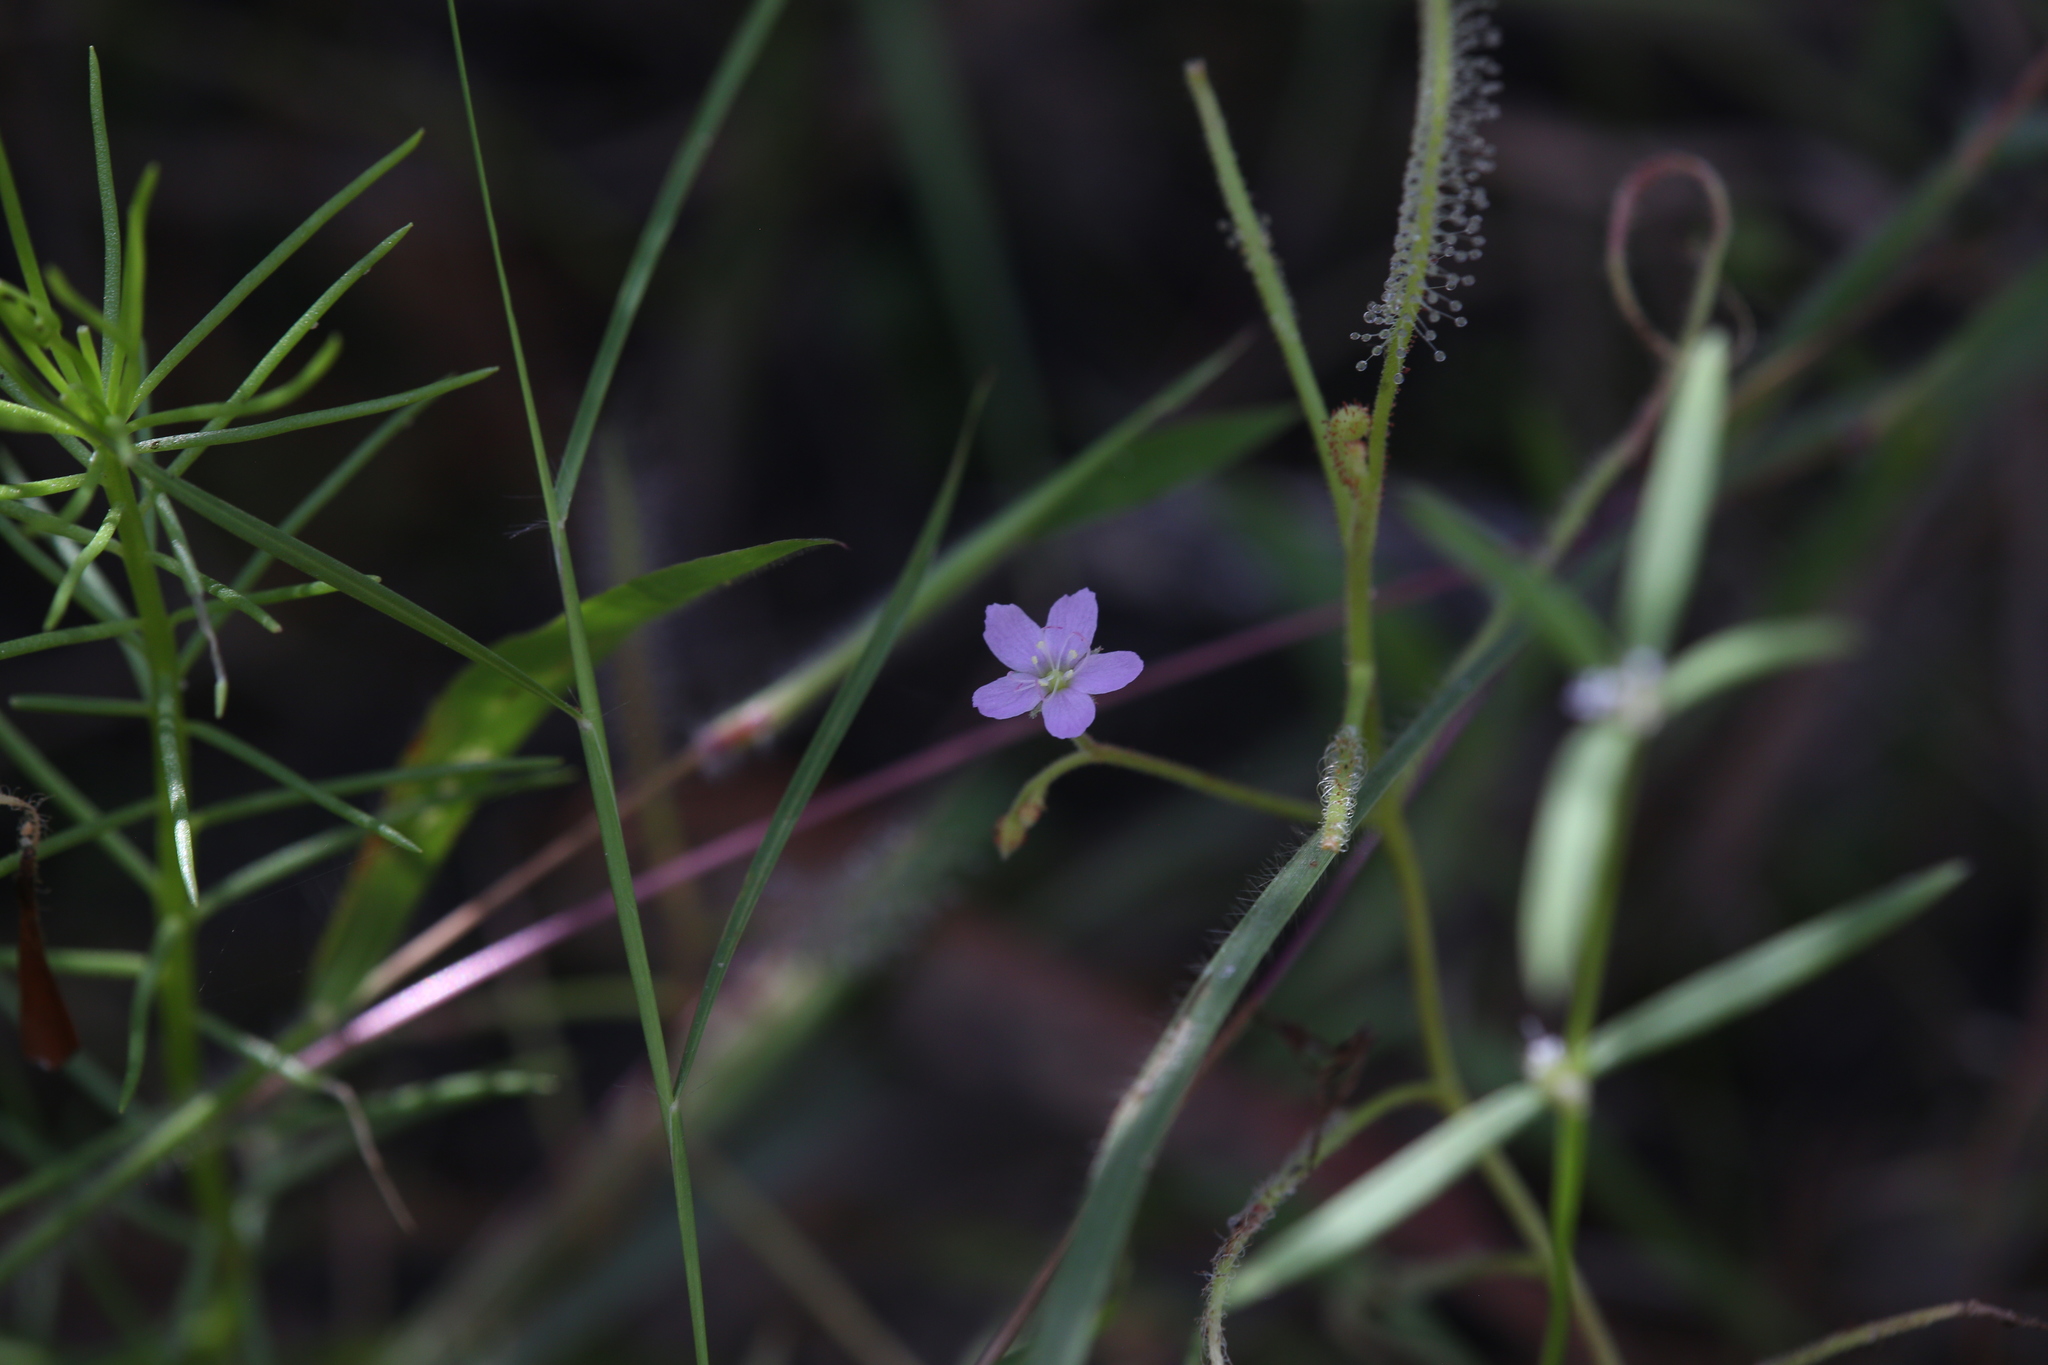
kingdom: Plantae
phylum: Tracheophyta
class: Magnoliopsida
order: Caryophyllales
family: Droseraceae
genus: Drosera
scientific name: Drosera indica
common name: Indian sundew
